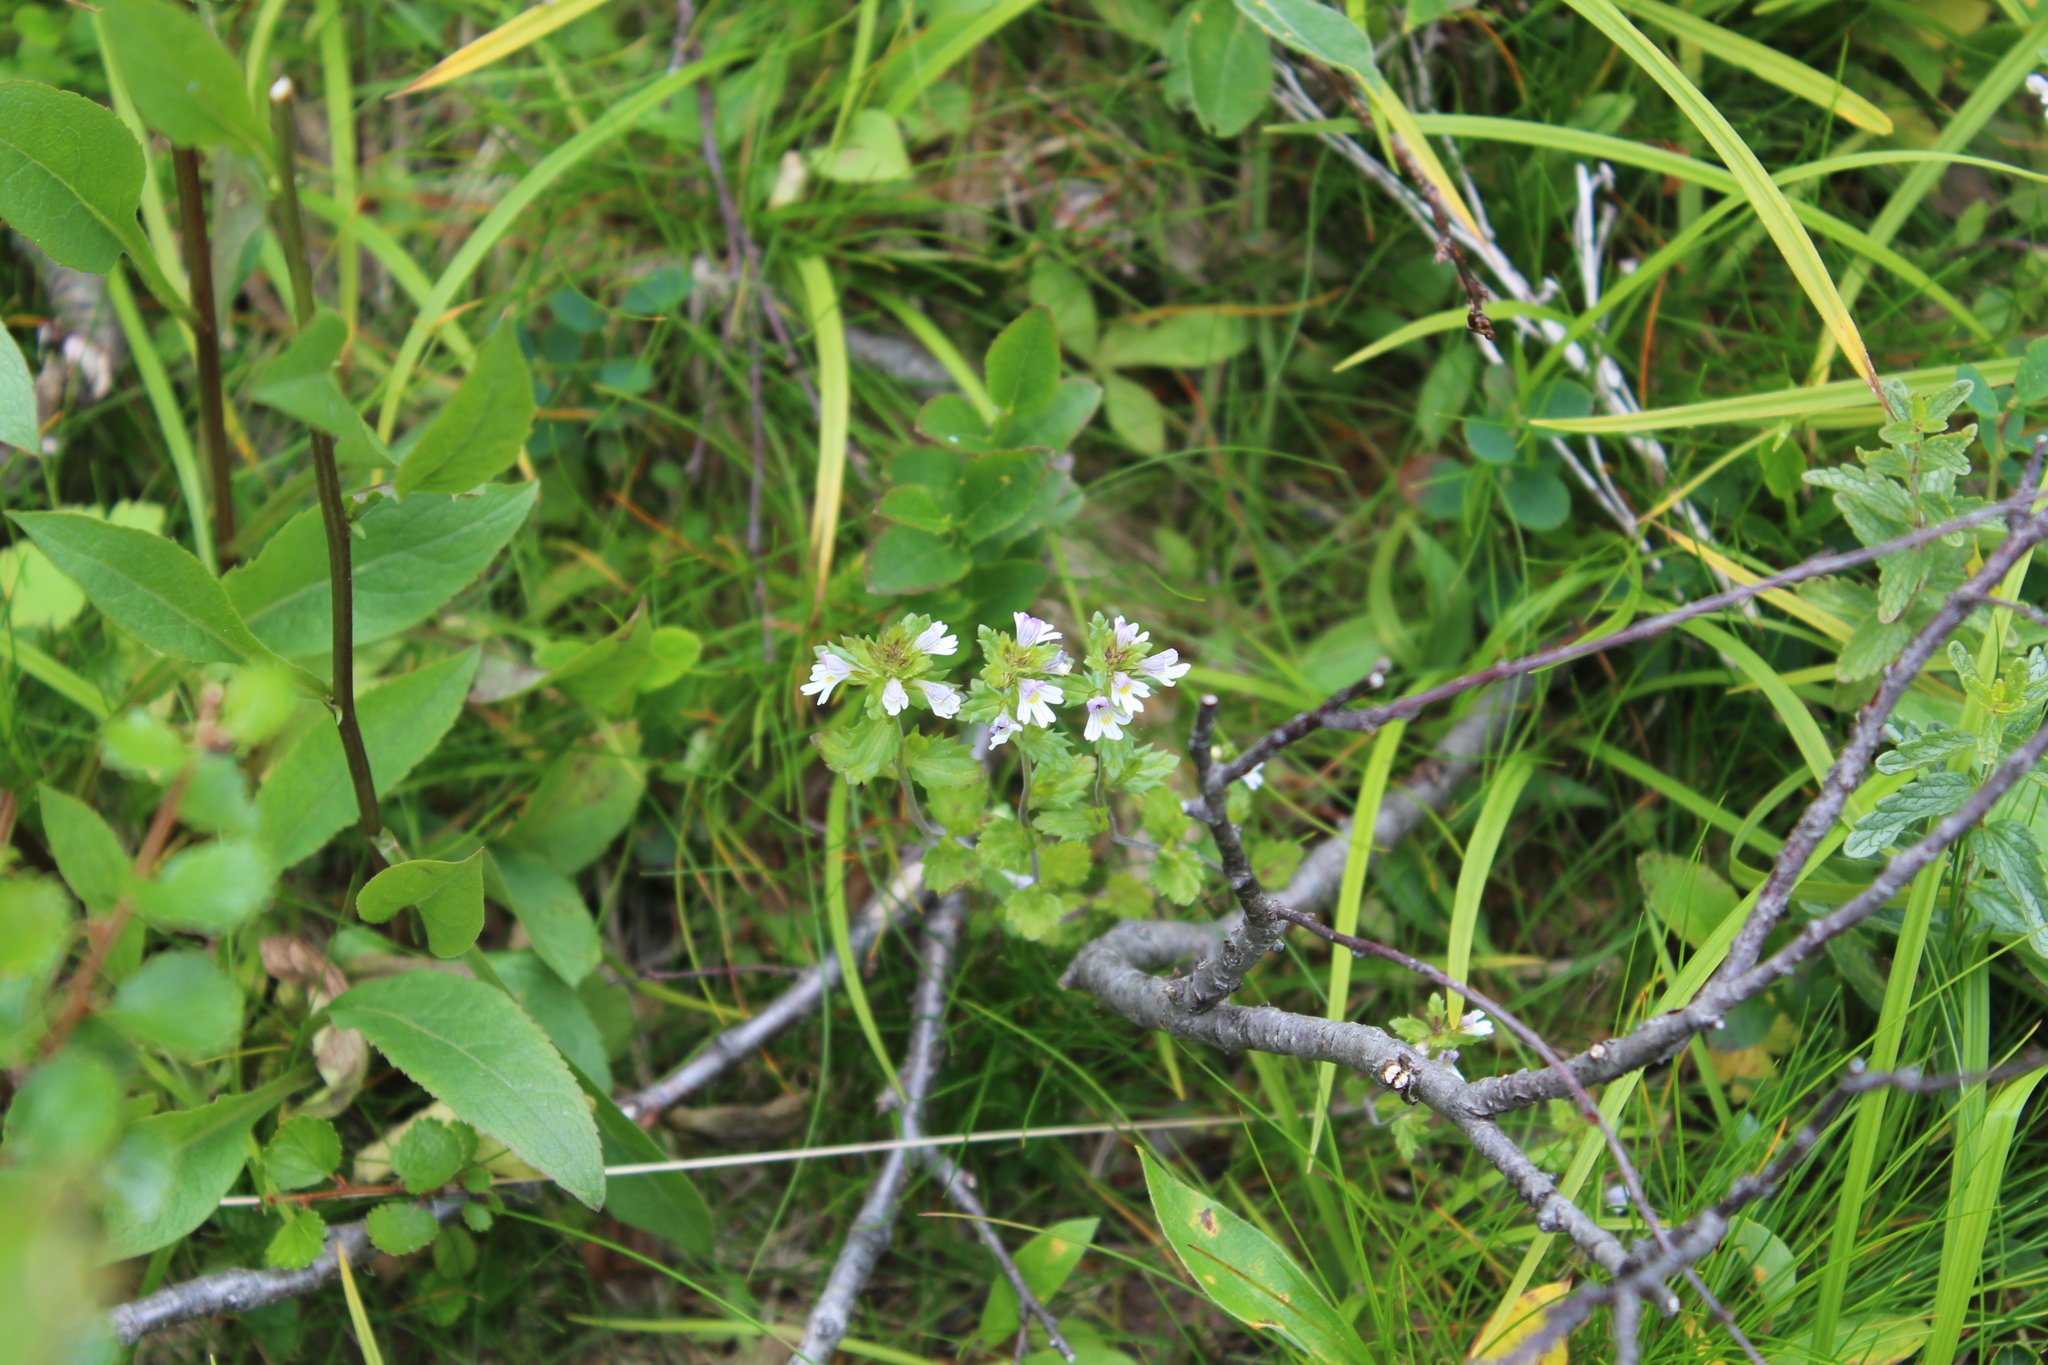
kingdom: Plantae
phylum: Tracheophyta
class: Magnoliopsida
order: Lamiales
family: Orobanchaceae
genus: Euphrasia
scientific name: Euphrasia wettsteinii
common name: Wettstein's eyebright
